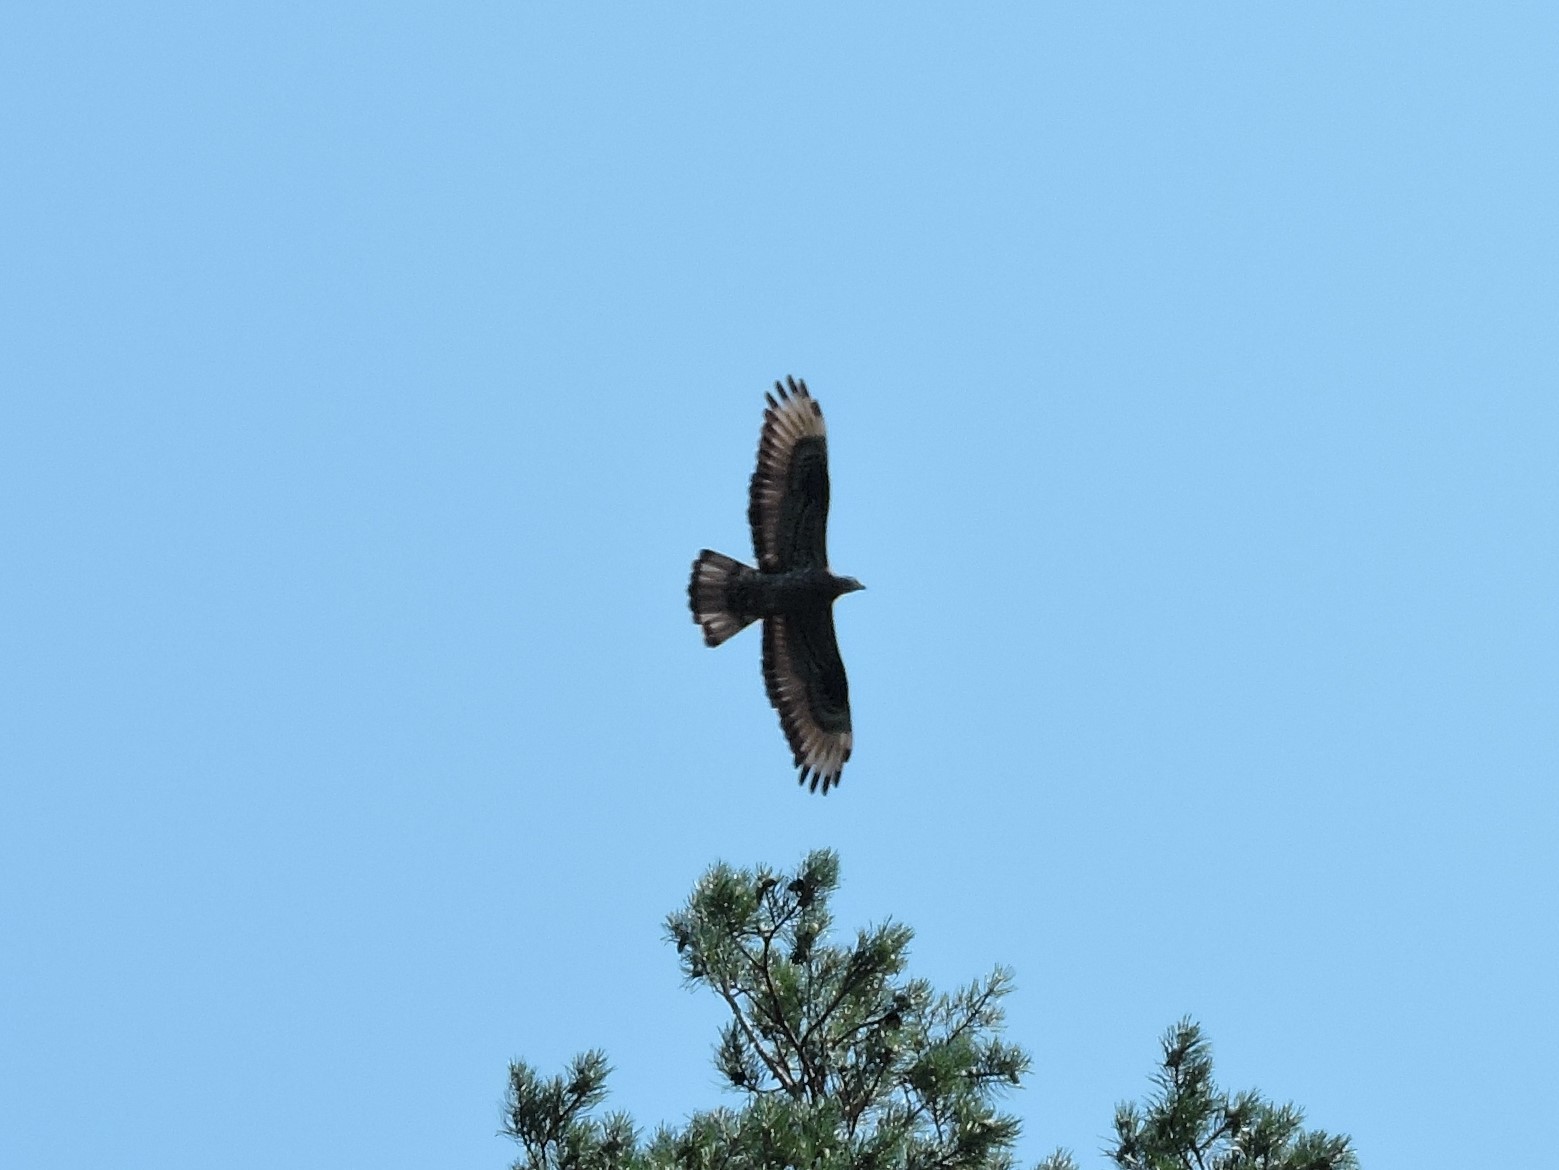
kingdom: Animalia
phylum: Chordata
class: Aves
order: Accipitriformes
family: Accipitridae
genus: Pernis
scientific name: Pernis apivorus
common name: European honey buzzard
